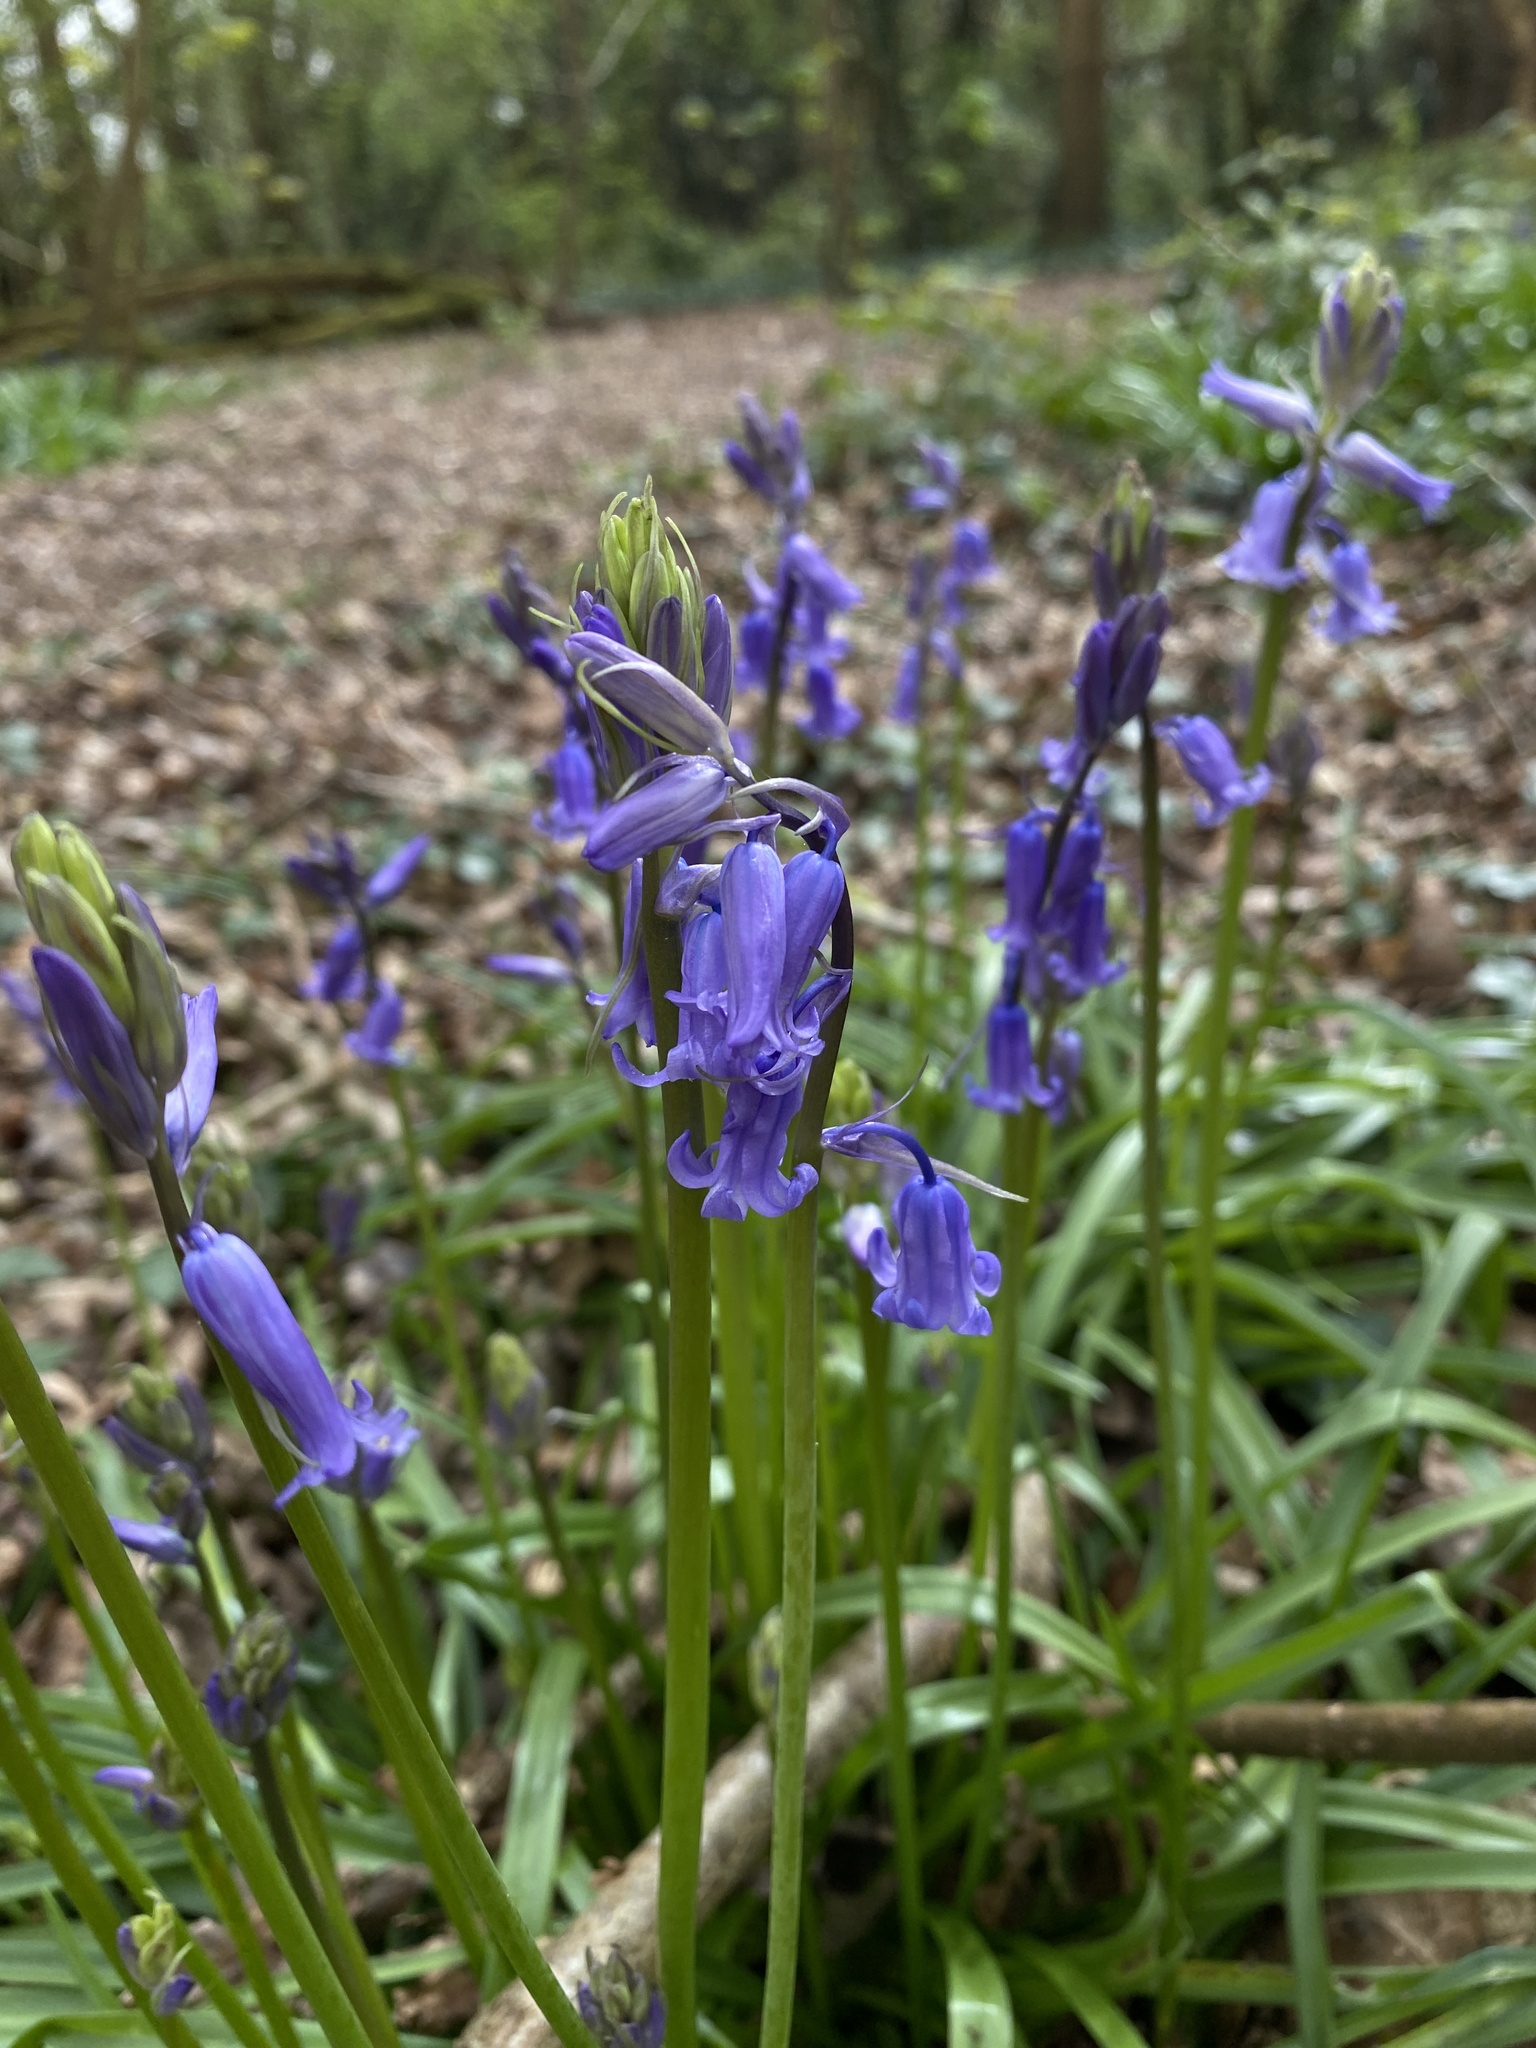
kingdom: Plantae
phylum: Tracheophyta
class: Liliopsida
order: Asparagales
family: Asparagaceae
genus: Hyacinthoides
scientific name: Hyacinthoides non-scripta
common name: Bluebell
